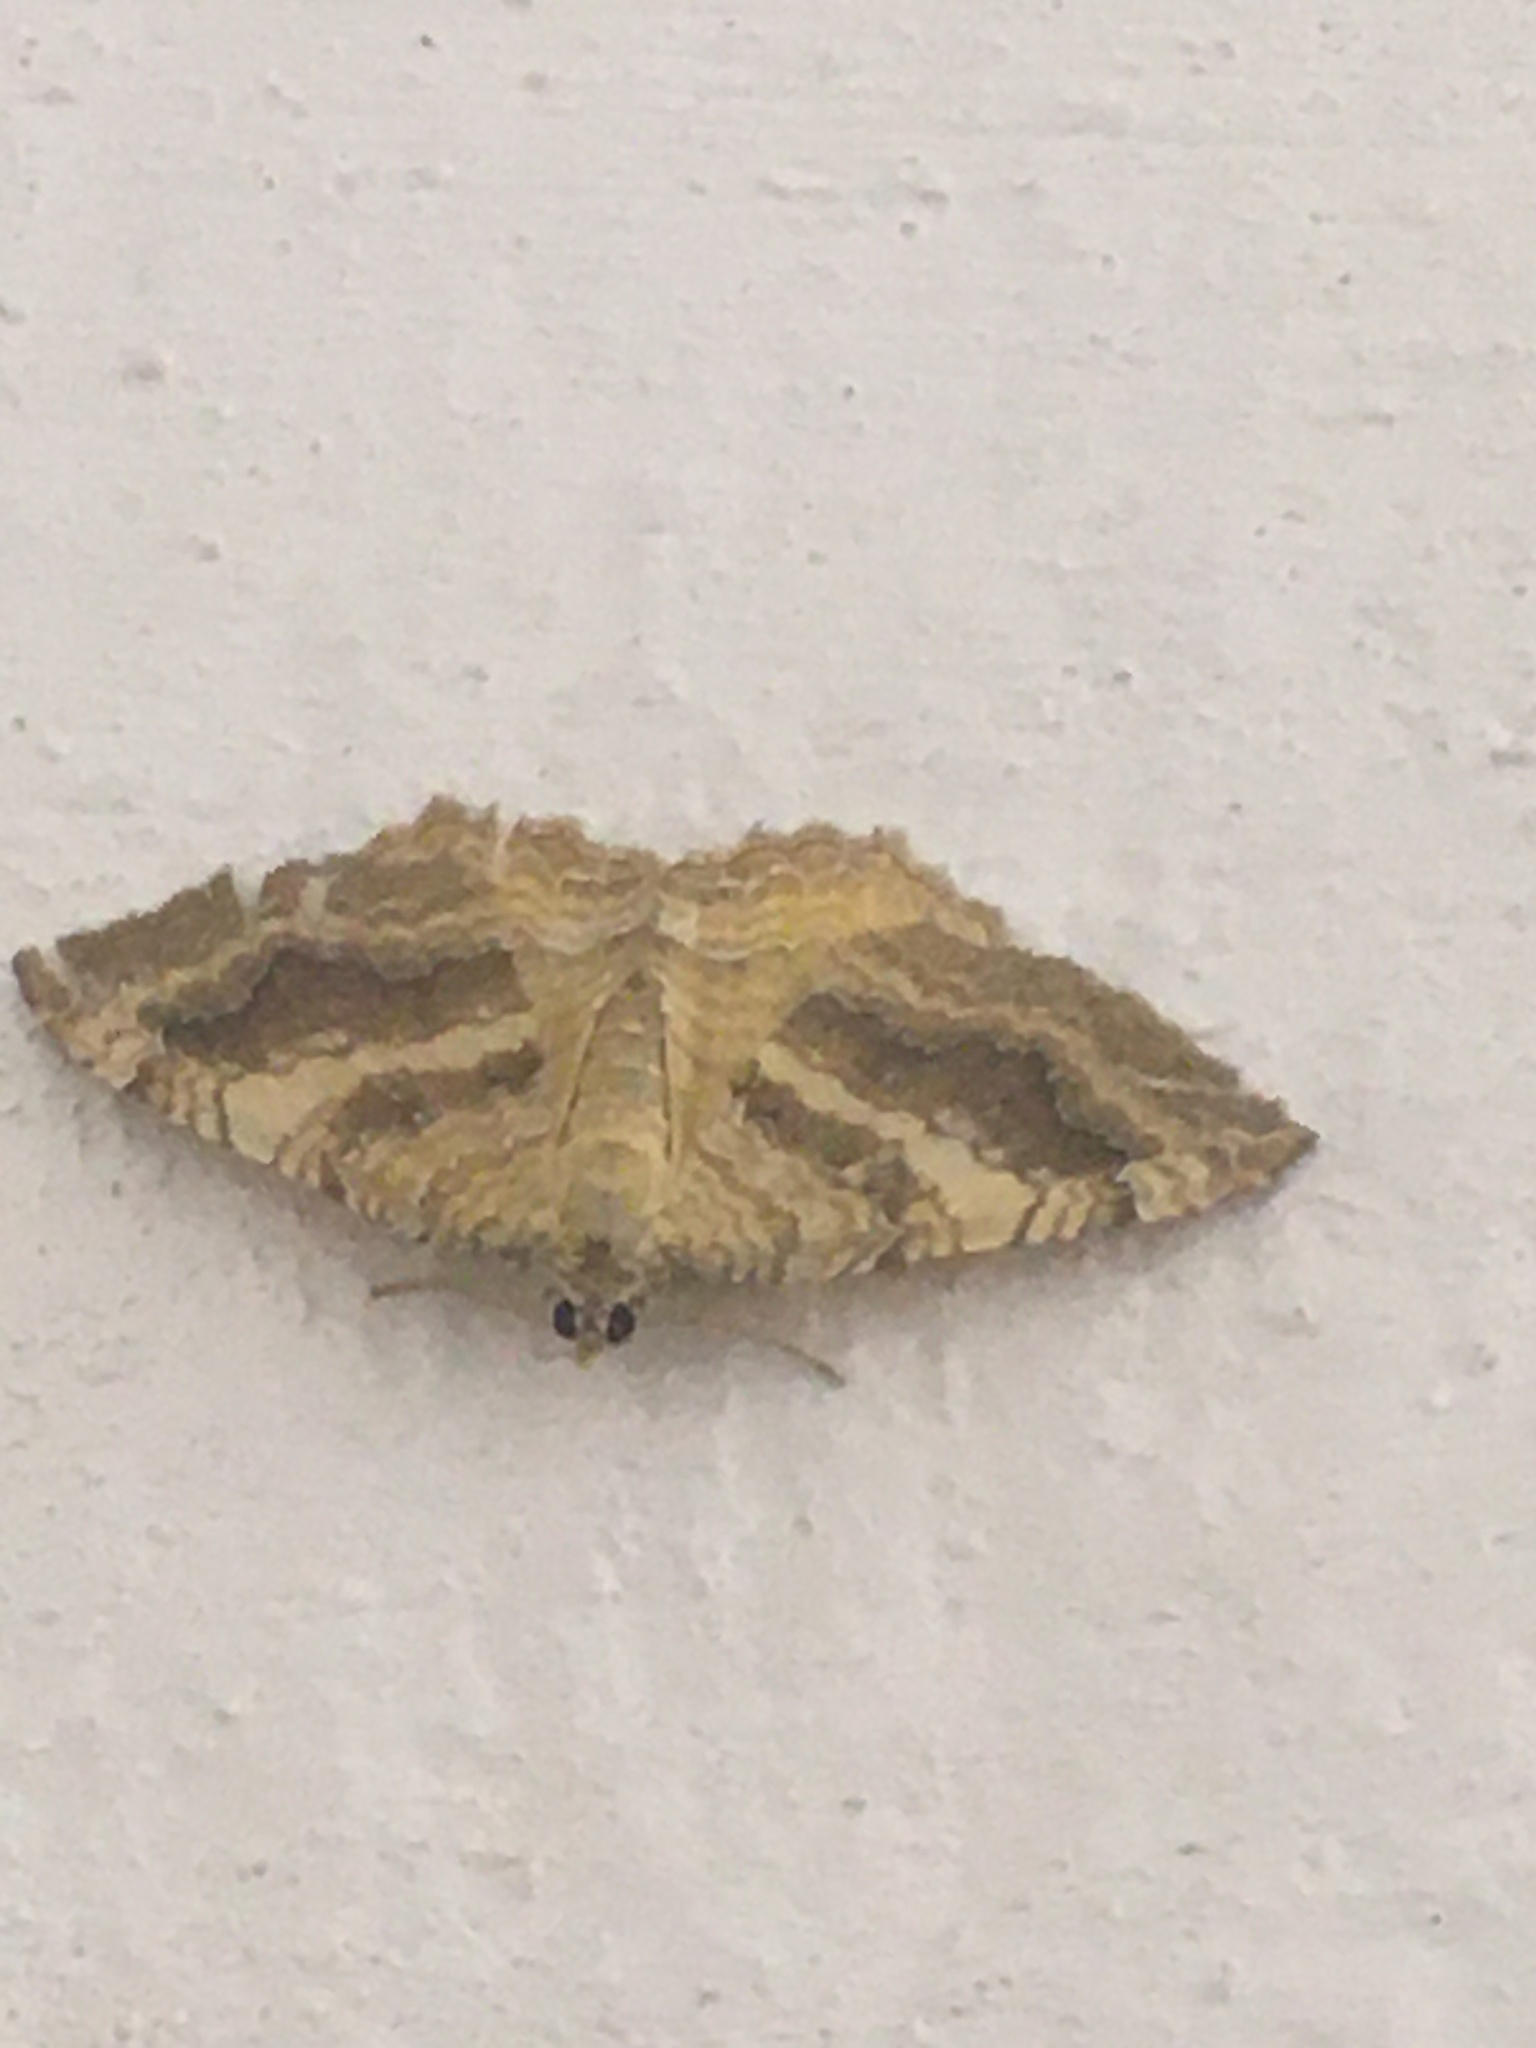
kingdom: Animalia
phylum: Arthropoda
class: Insecta
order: Lepidoptera
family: Geometridae
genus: Camptogramma
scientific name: Camptogramma bilineata
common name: Yellow shell
